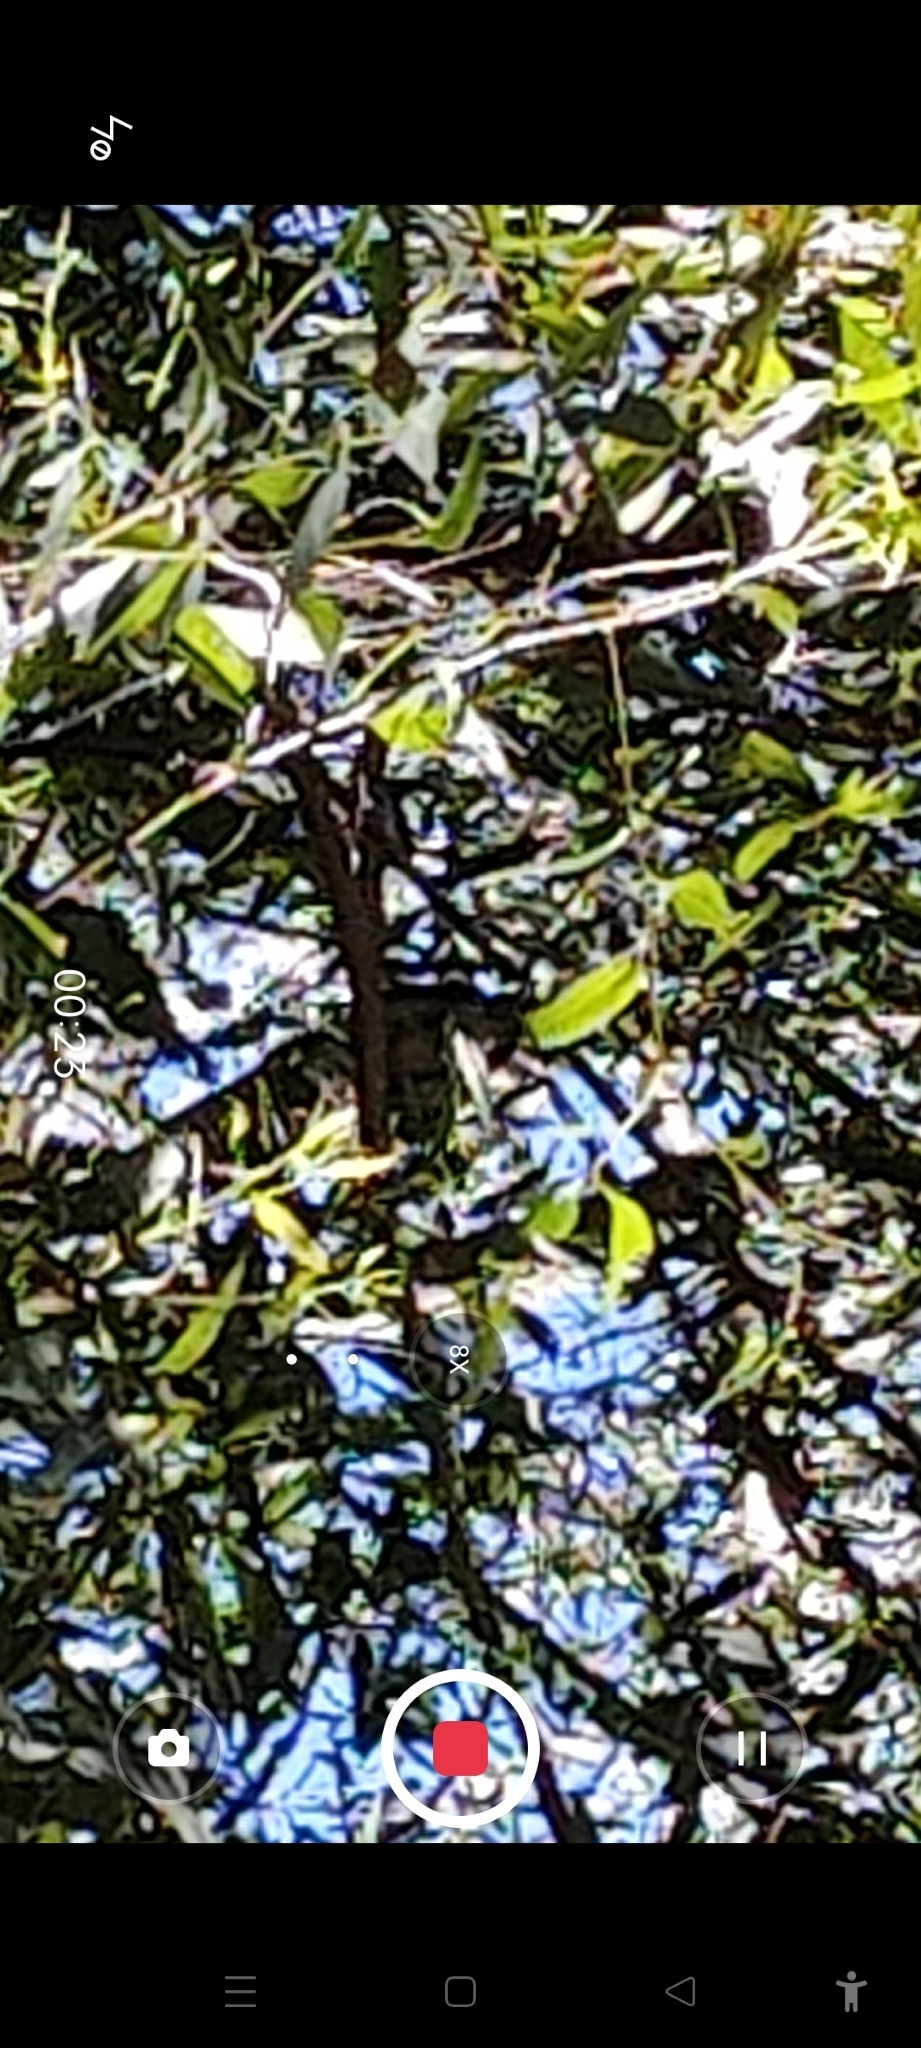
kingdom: Animalia
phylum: Chordata
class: Aves
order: Passeriformes
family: Cracticidae
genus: Cracticus
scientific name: Cracticus torquatus
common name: Grey butcherbird
